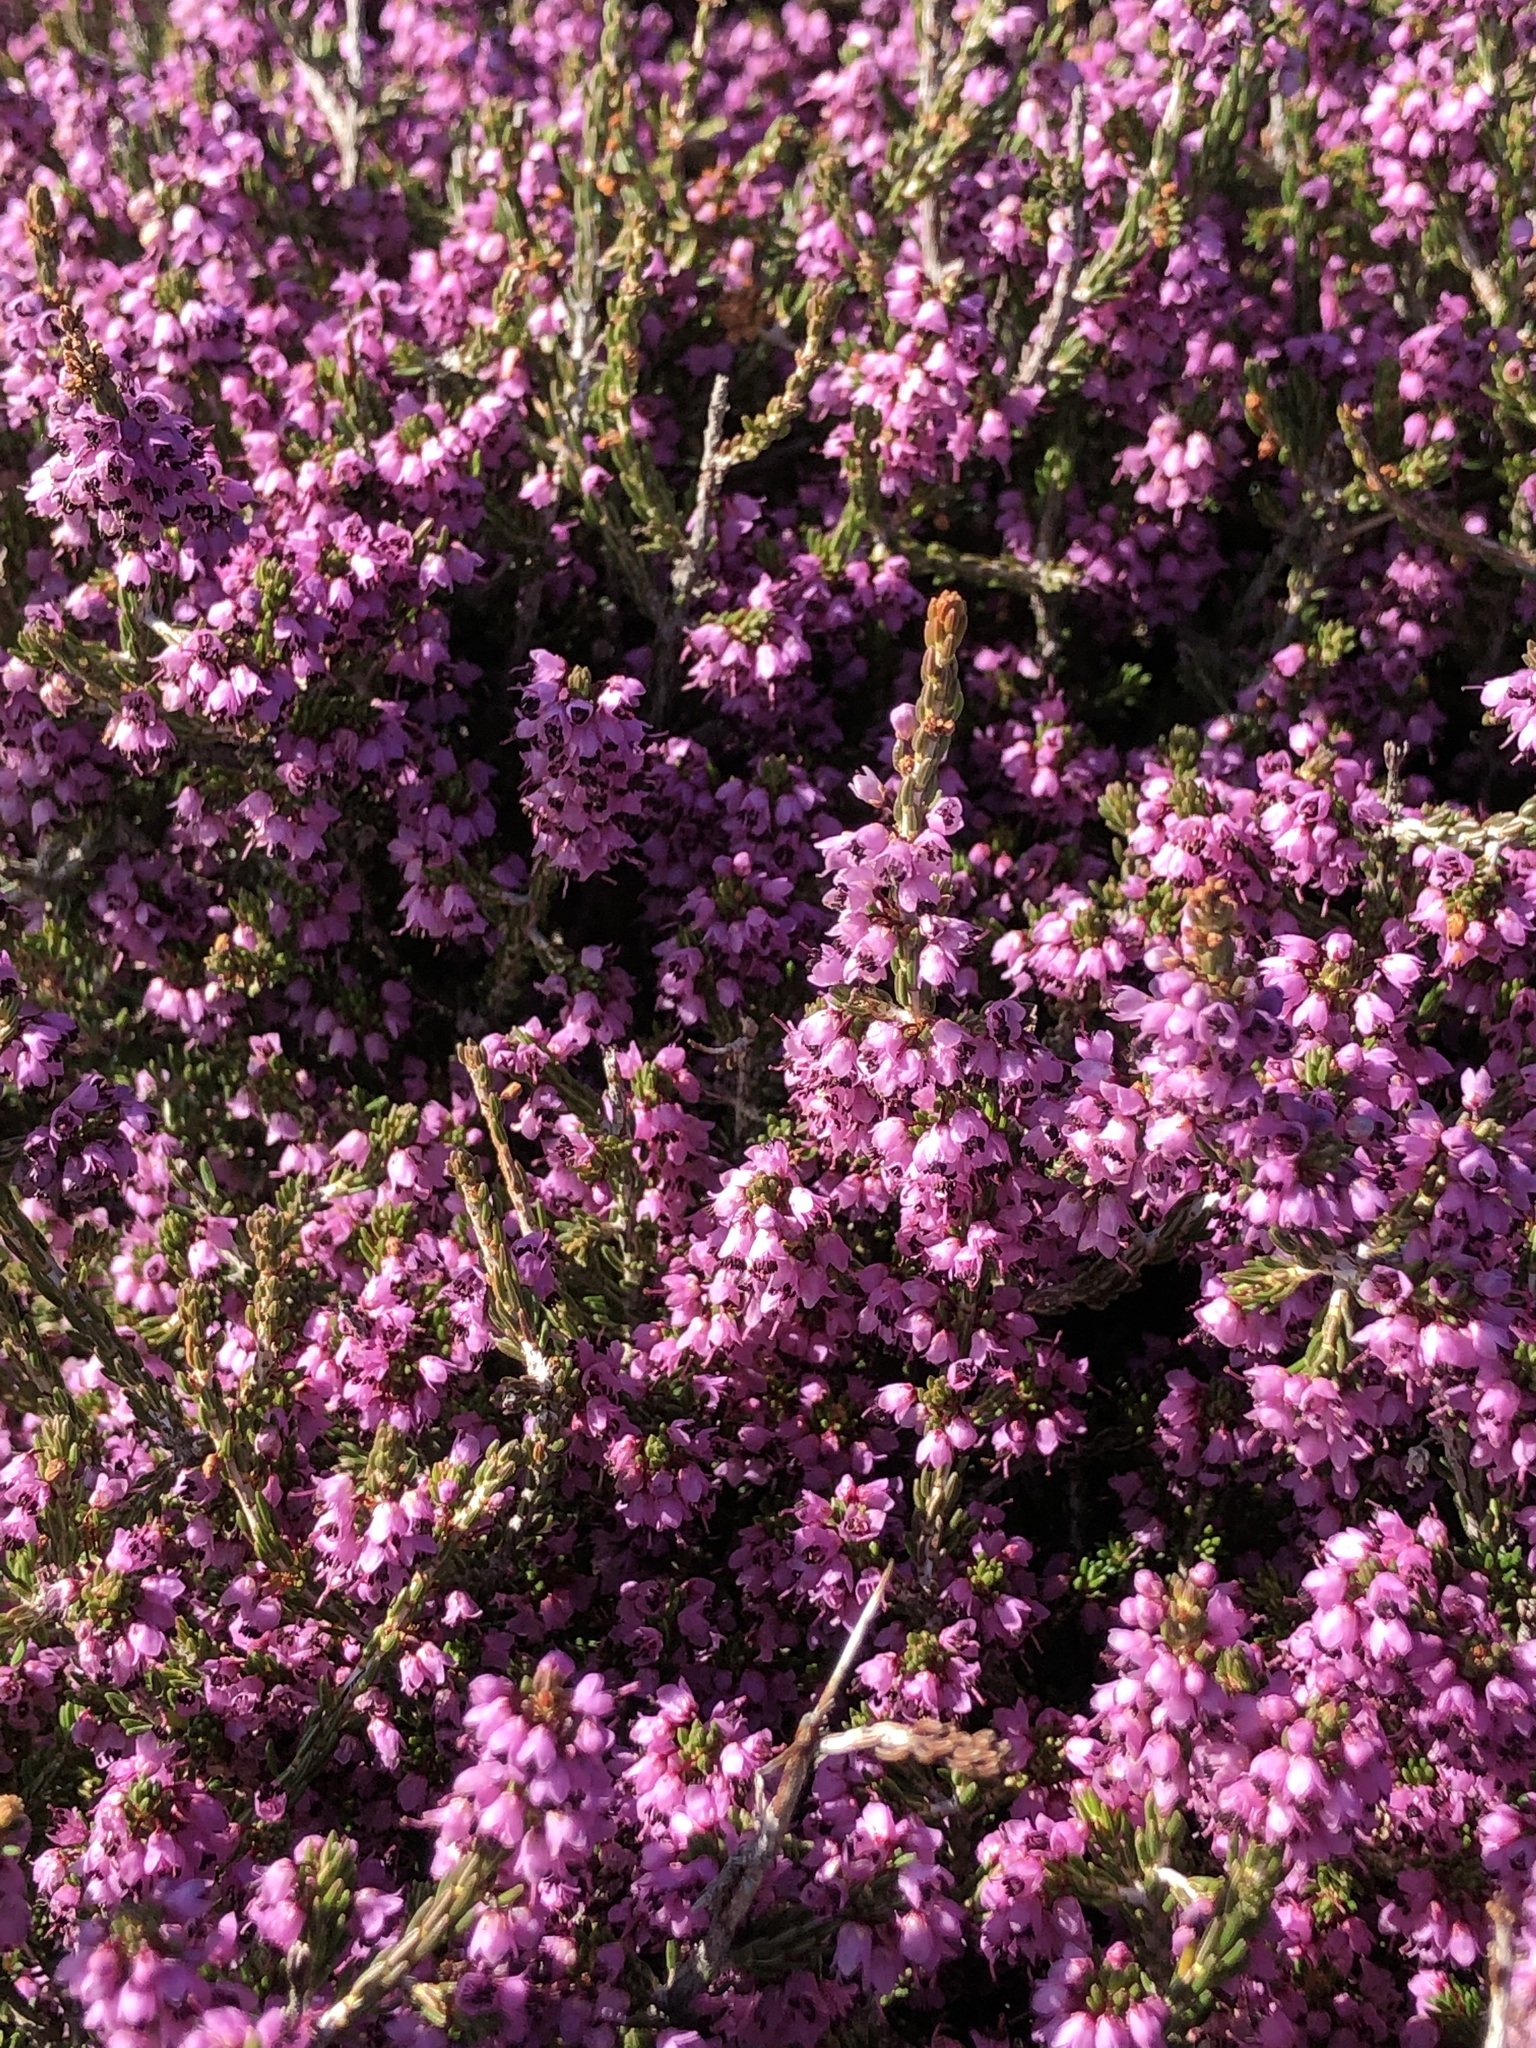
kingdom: Plantae
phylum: Tracheophyta
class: Magnoliopsida
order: Ericales
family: Ericaceae
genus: Erica
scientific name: Erica manipuliflora
